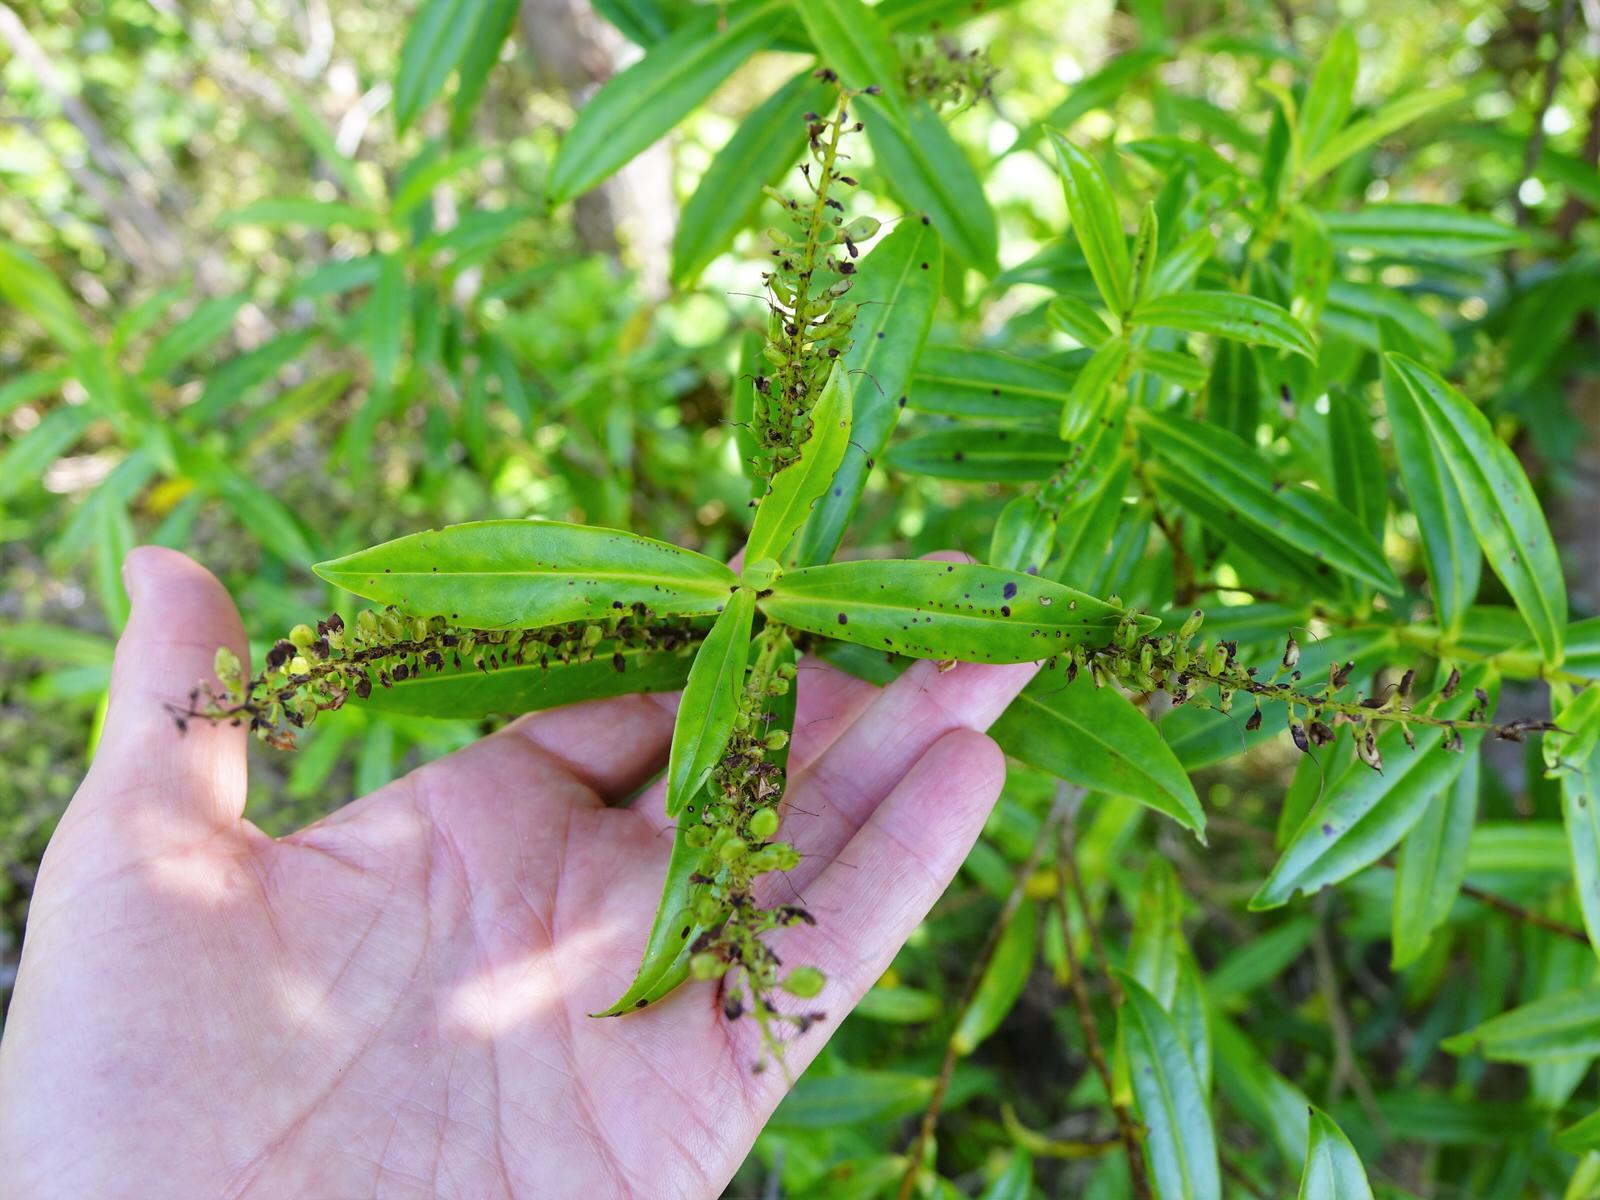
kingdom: Plantae
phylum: Tracheophyta
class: Magnoliopsida
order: Lamiales
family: Plantaginaceae
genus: Veronica
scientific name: Veronica stricta
